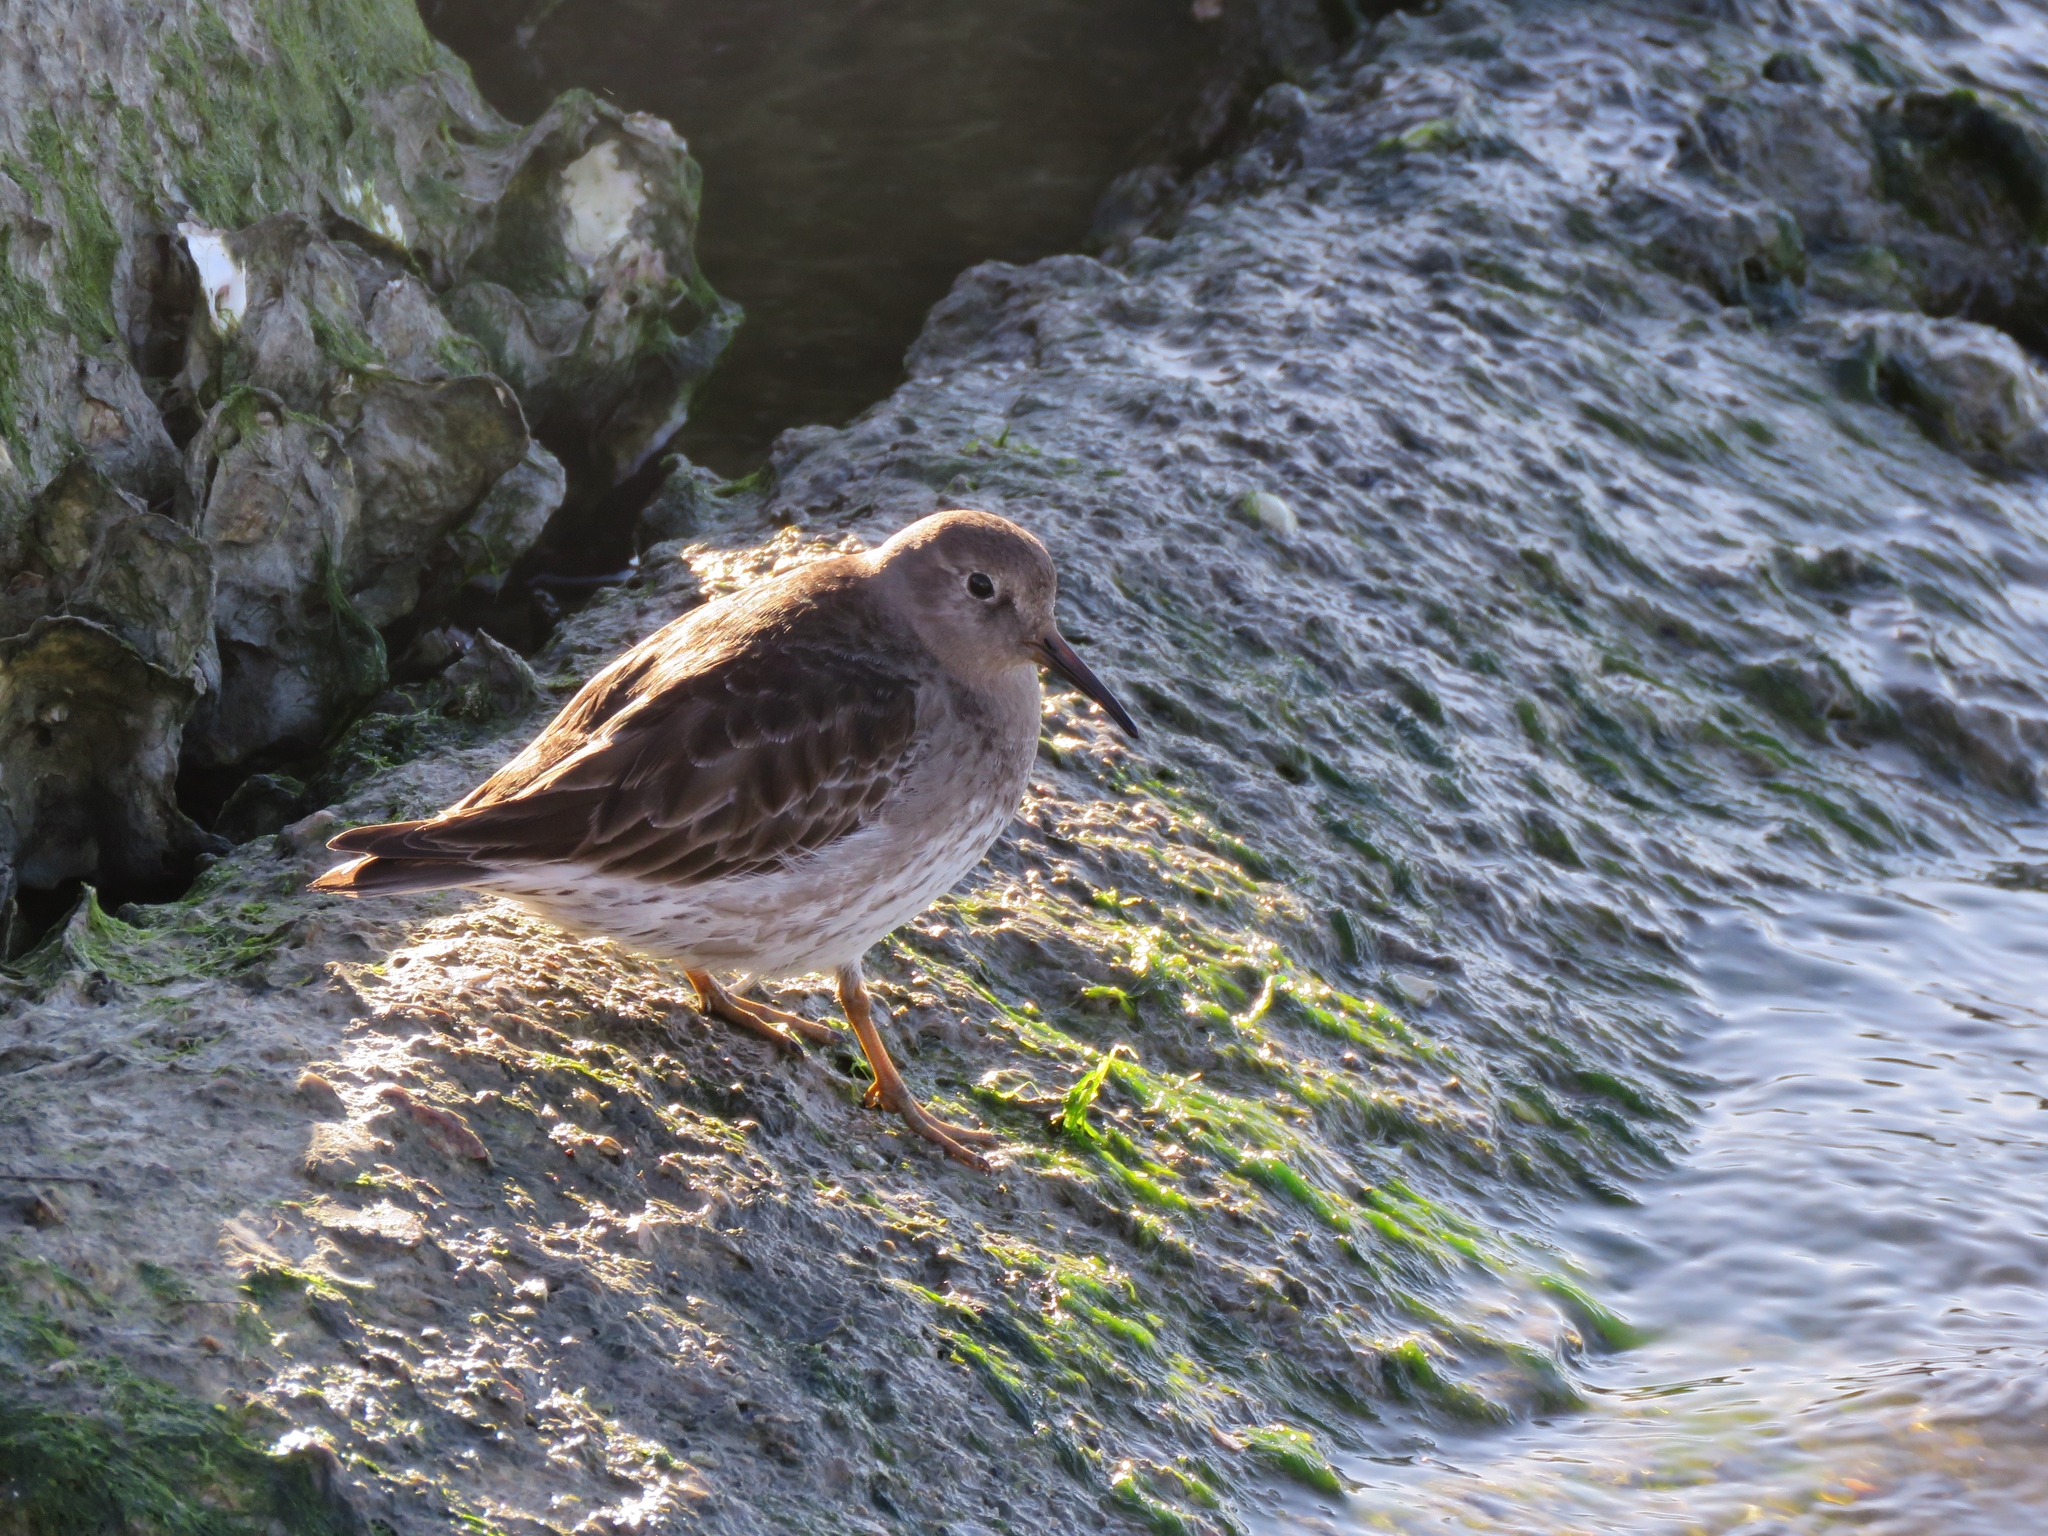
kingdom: Animalia
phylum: Chordata
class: Aves
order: Charadriiformes
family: Scolopacidae
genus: Calidris
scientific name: Calidris maritima
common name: Purple sandpiper
